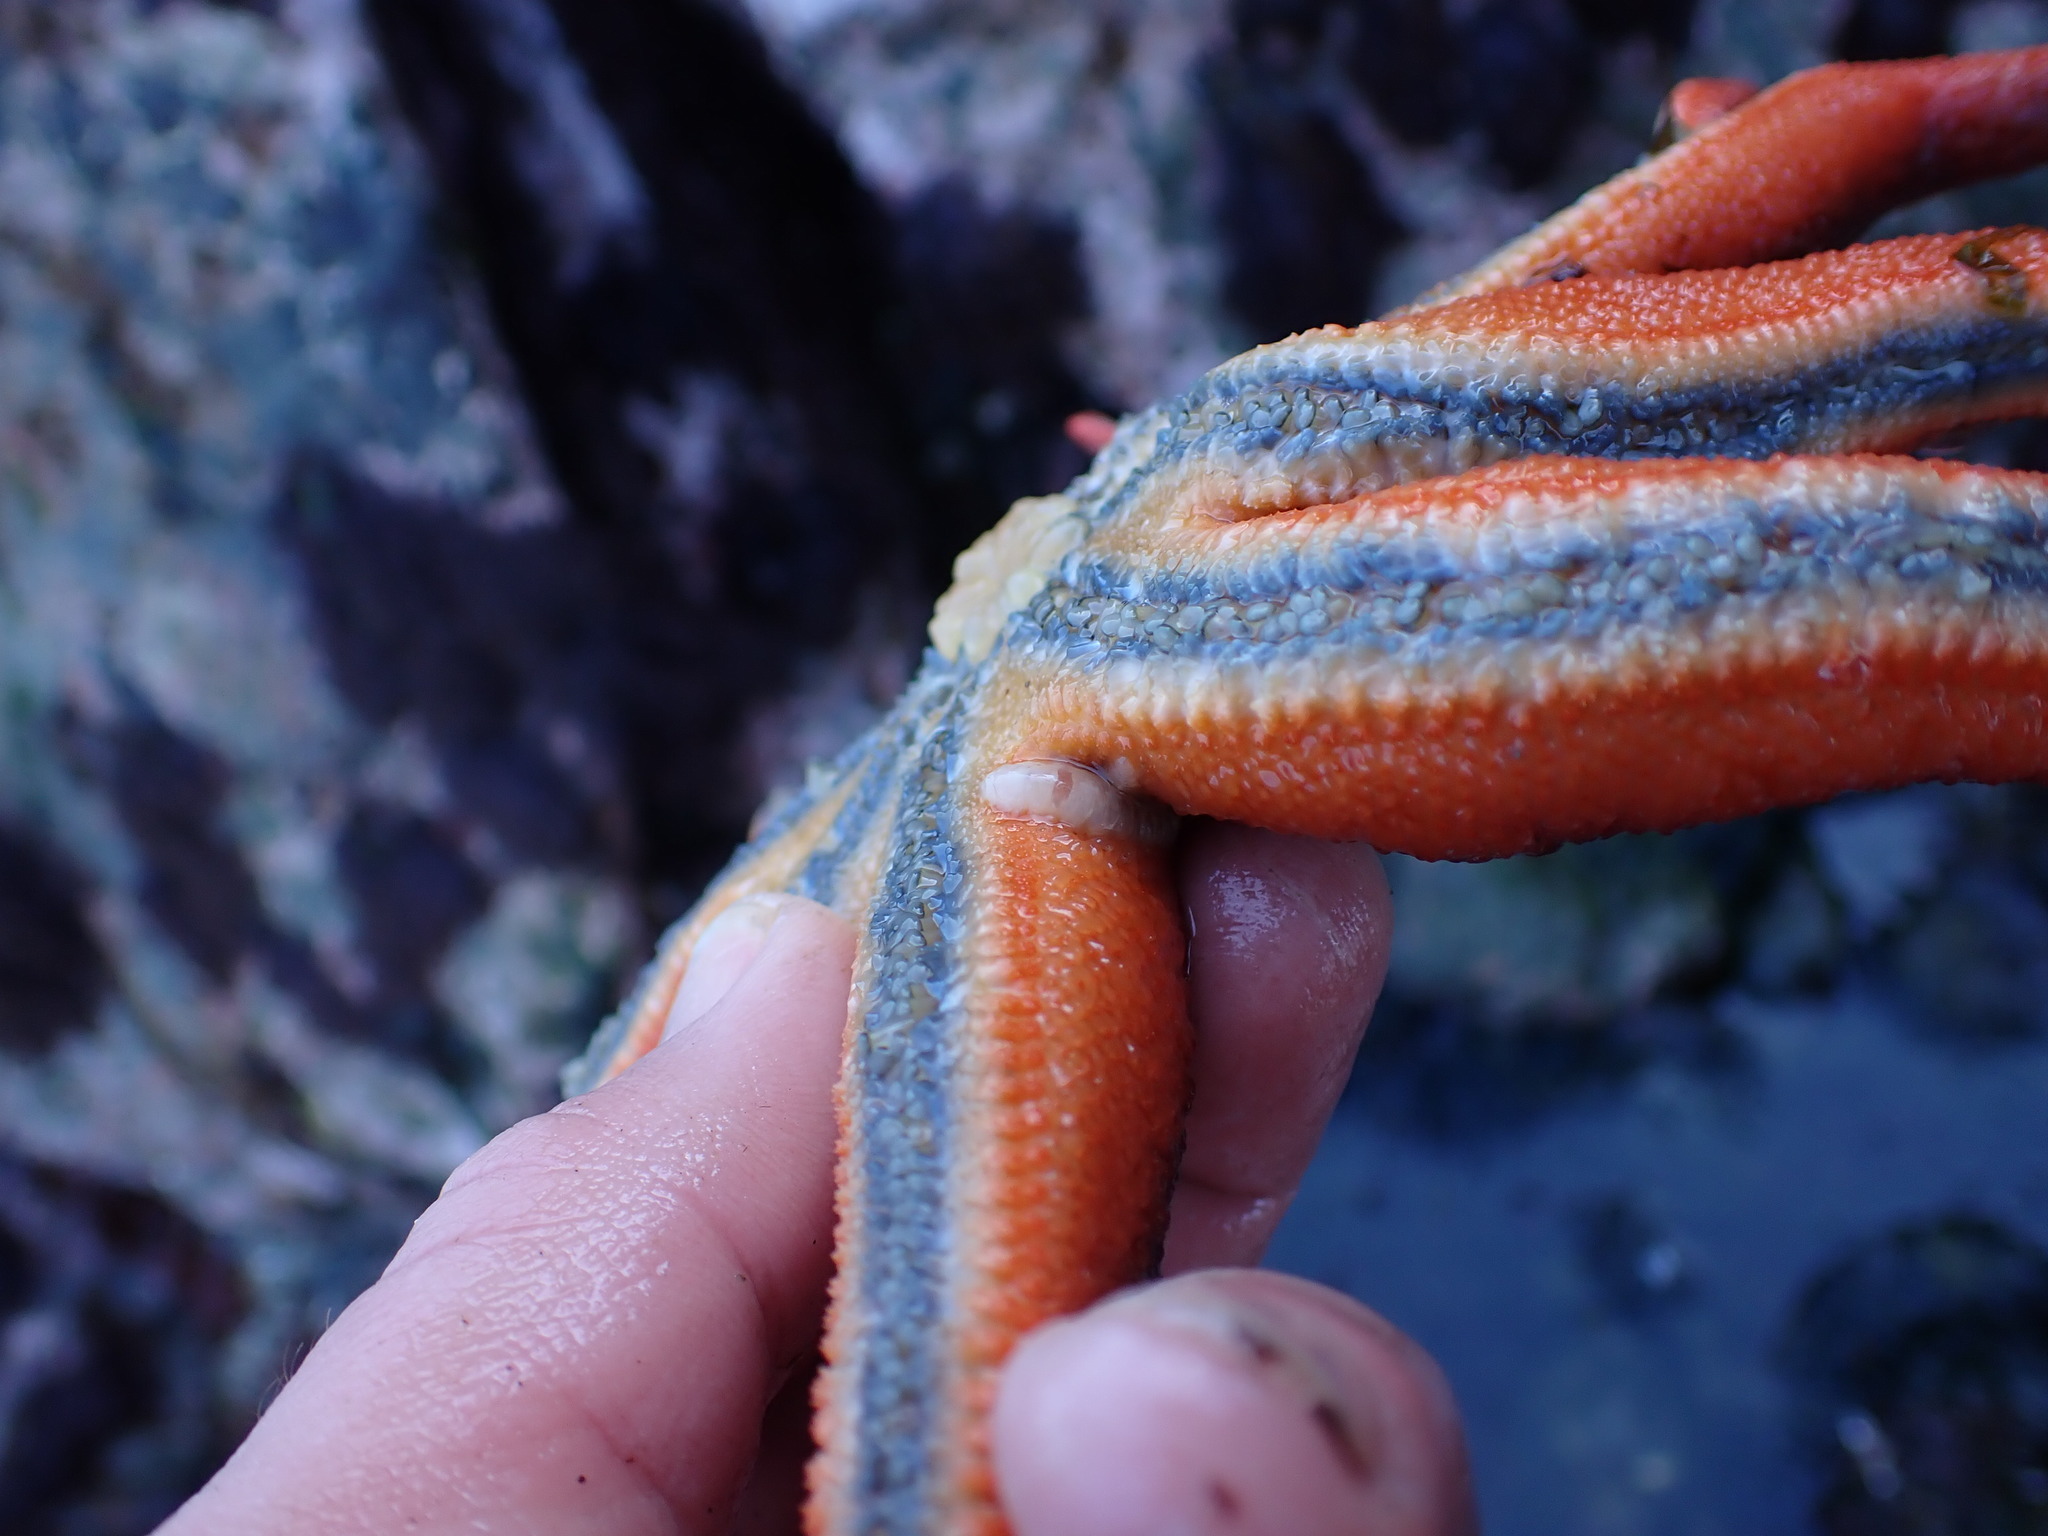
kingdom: Animalia
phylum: Echinodermata
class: Asteroidea
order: Valvatida
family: Solasteridae
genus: Solaster
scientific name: Solaster stimpsoni
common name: Orange sun star
